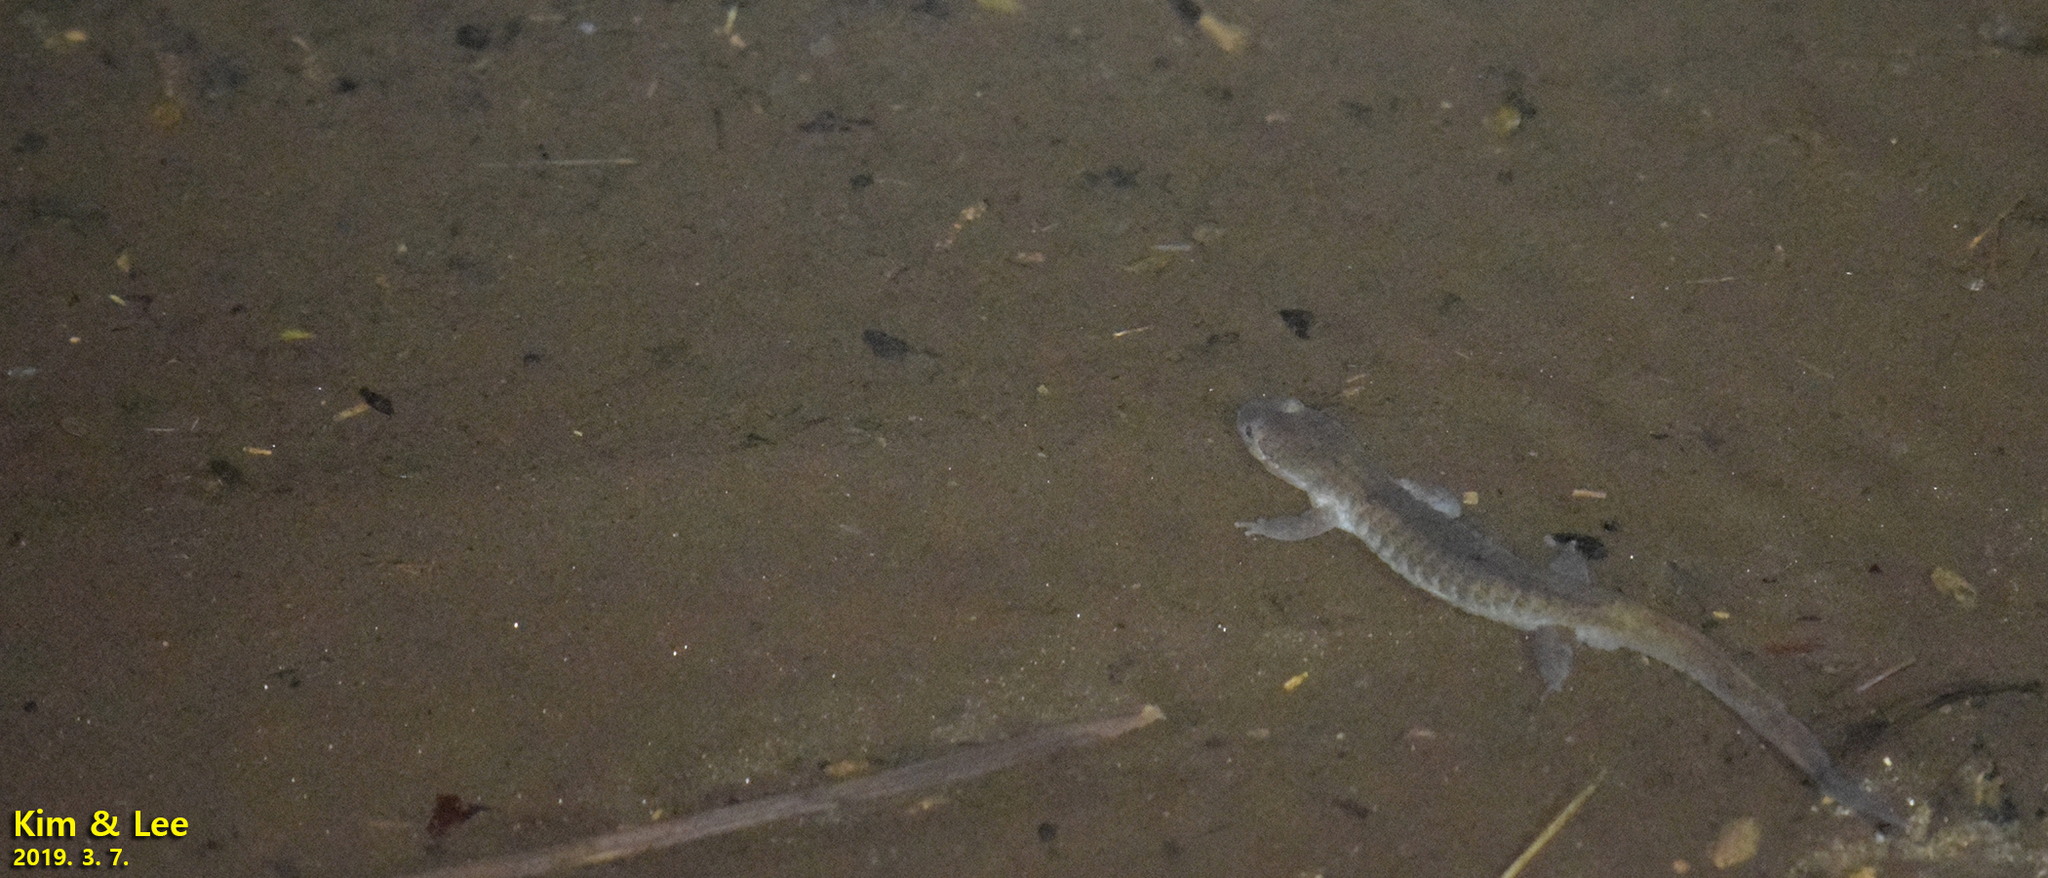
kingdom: Animalia
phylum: Chordata
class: Amphibia
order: Caudata
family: Hynobiidae
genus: Hynobius
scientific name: Hynobius leechii
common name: Gensan salamander
